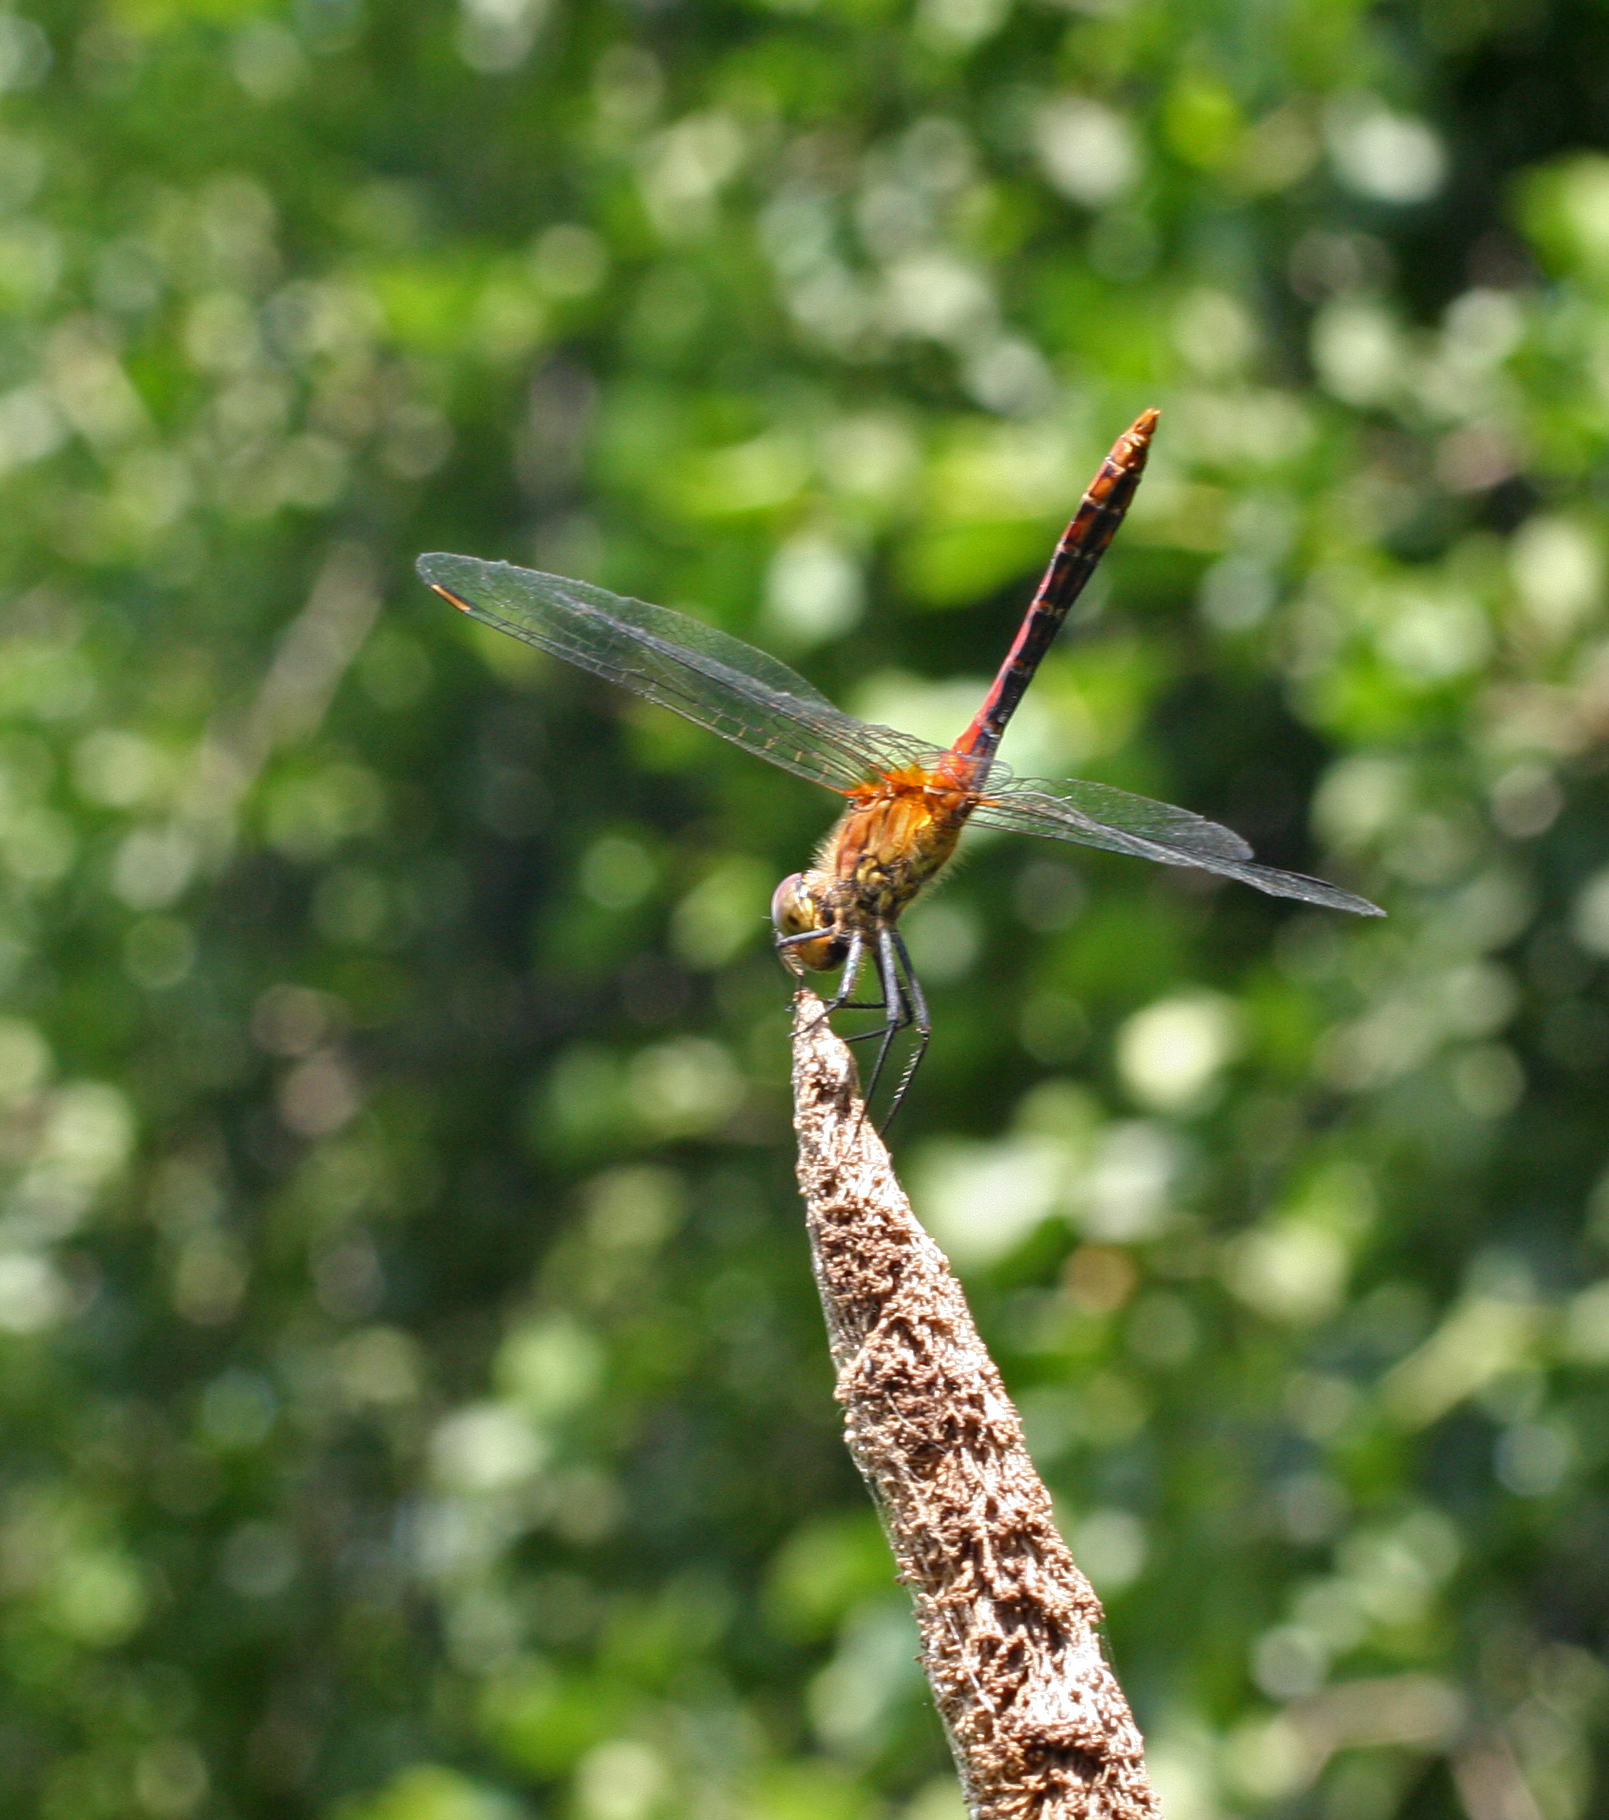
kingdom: Animalia
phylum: Arthropoda
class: Insecta
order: Odonata
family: Libellulidae
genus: Sympetrum
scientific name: Sympetrum sanguineum
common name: Ruddy darter
